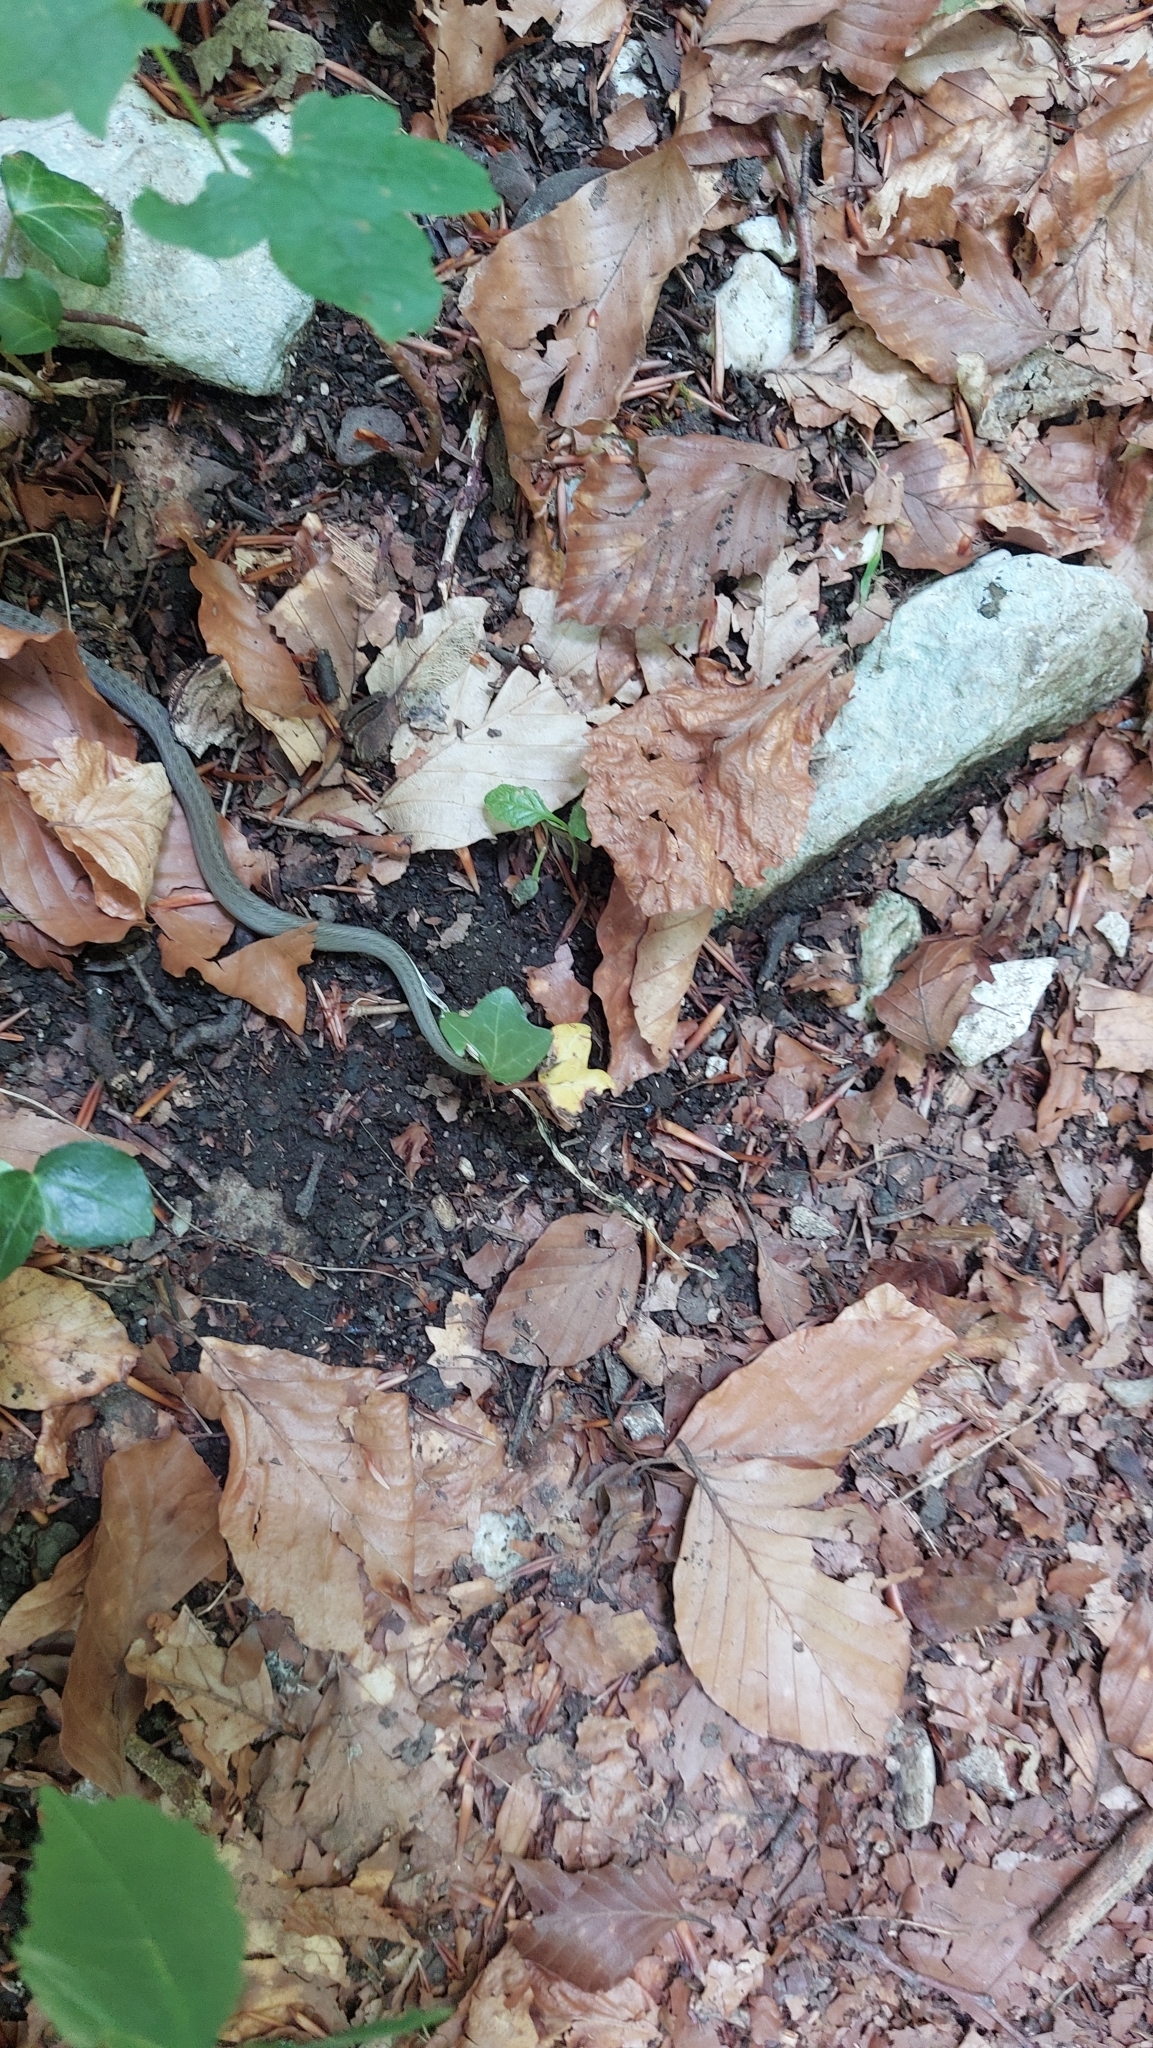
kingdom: Animalia
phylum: Chordata
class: Squamata
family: Colubridae
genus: Coronella
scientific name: Coronella austriaca
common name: Smooth snake
